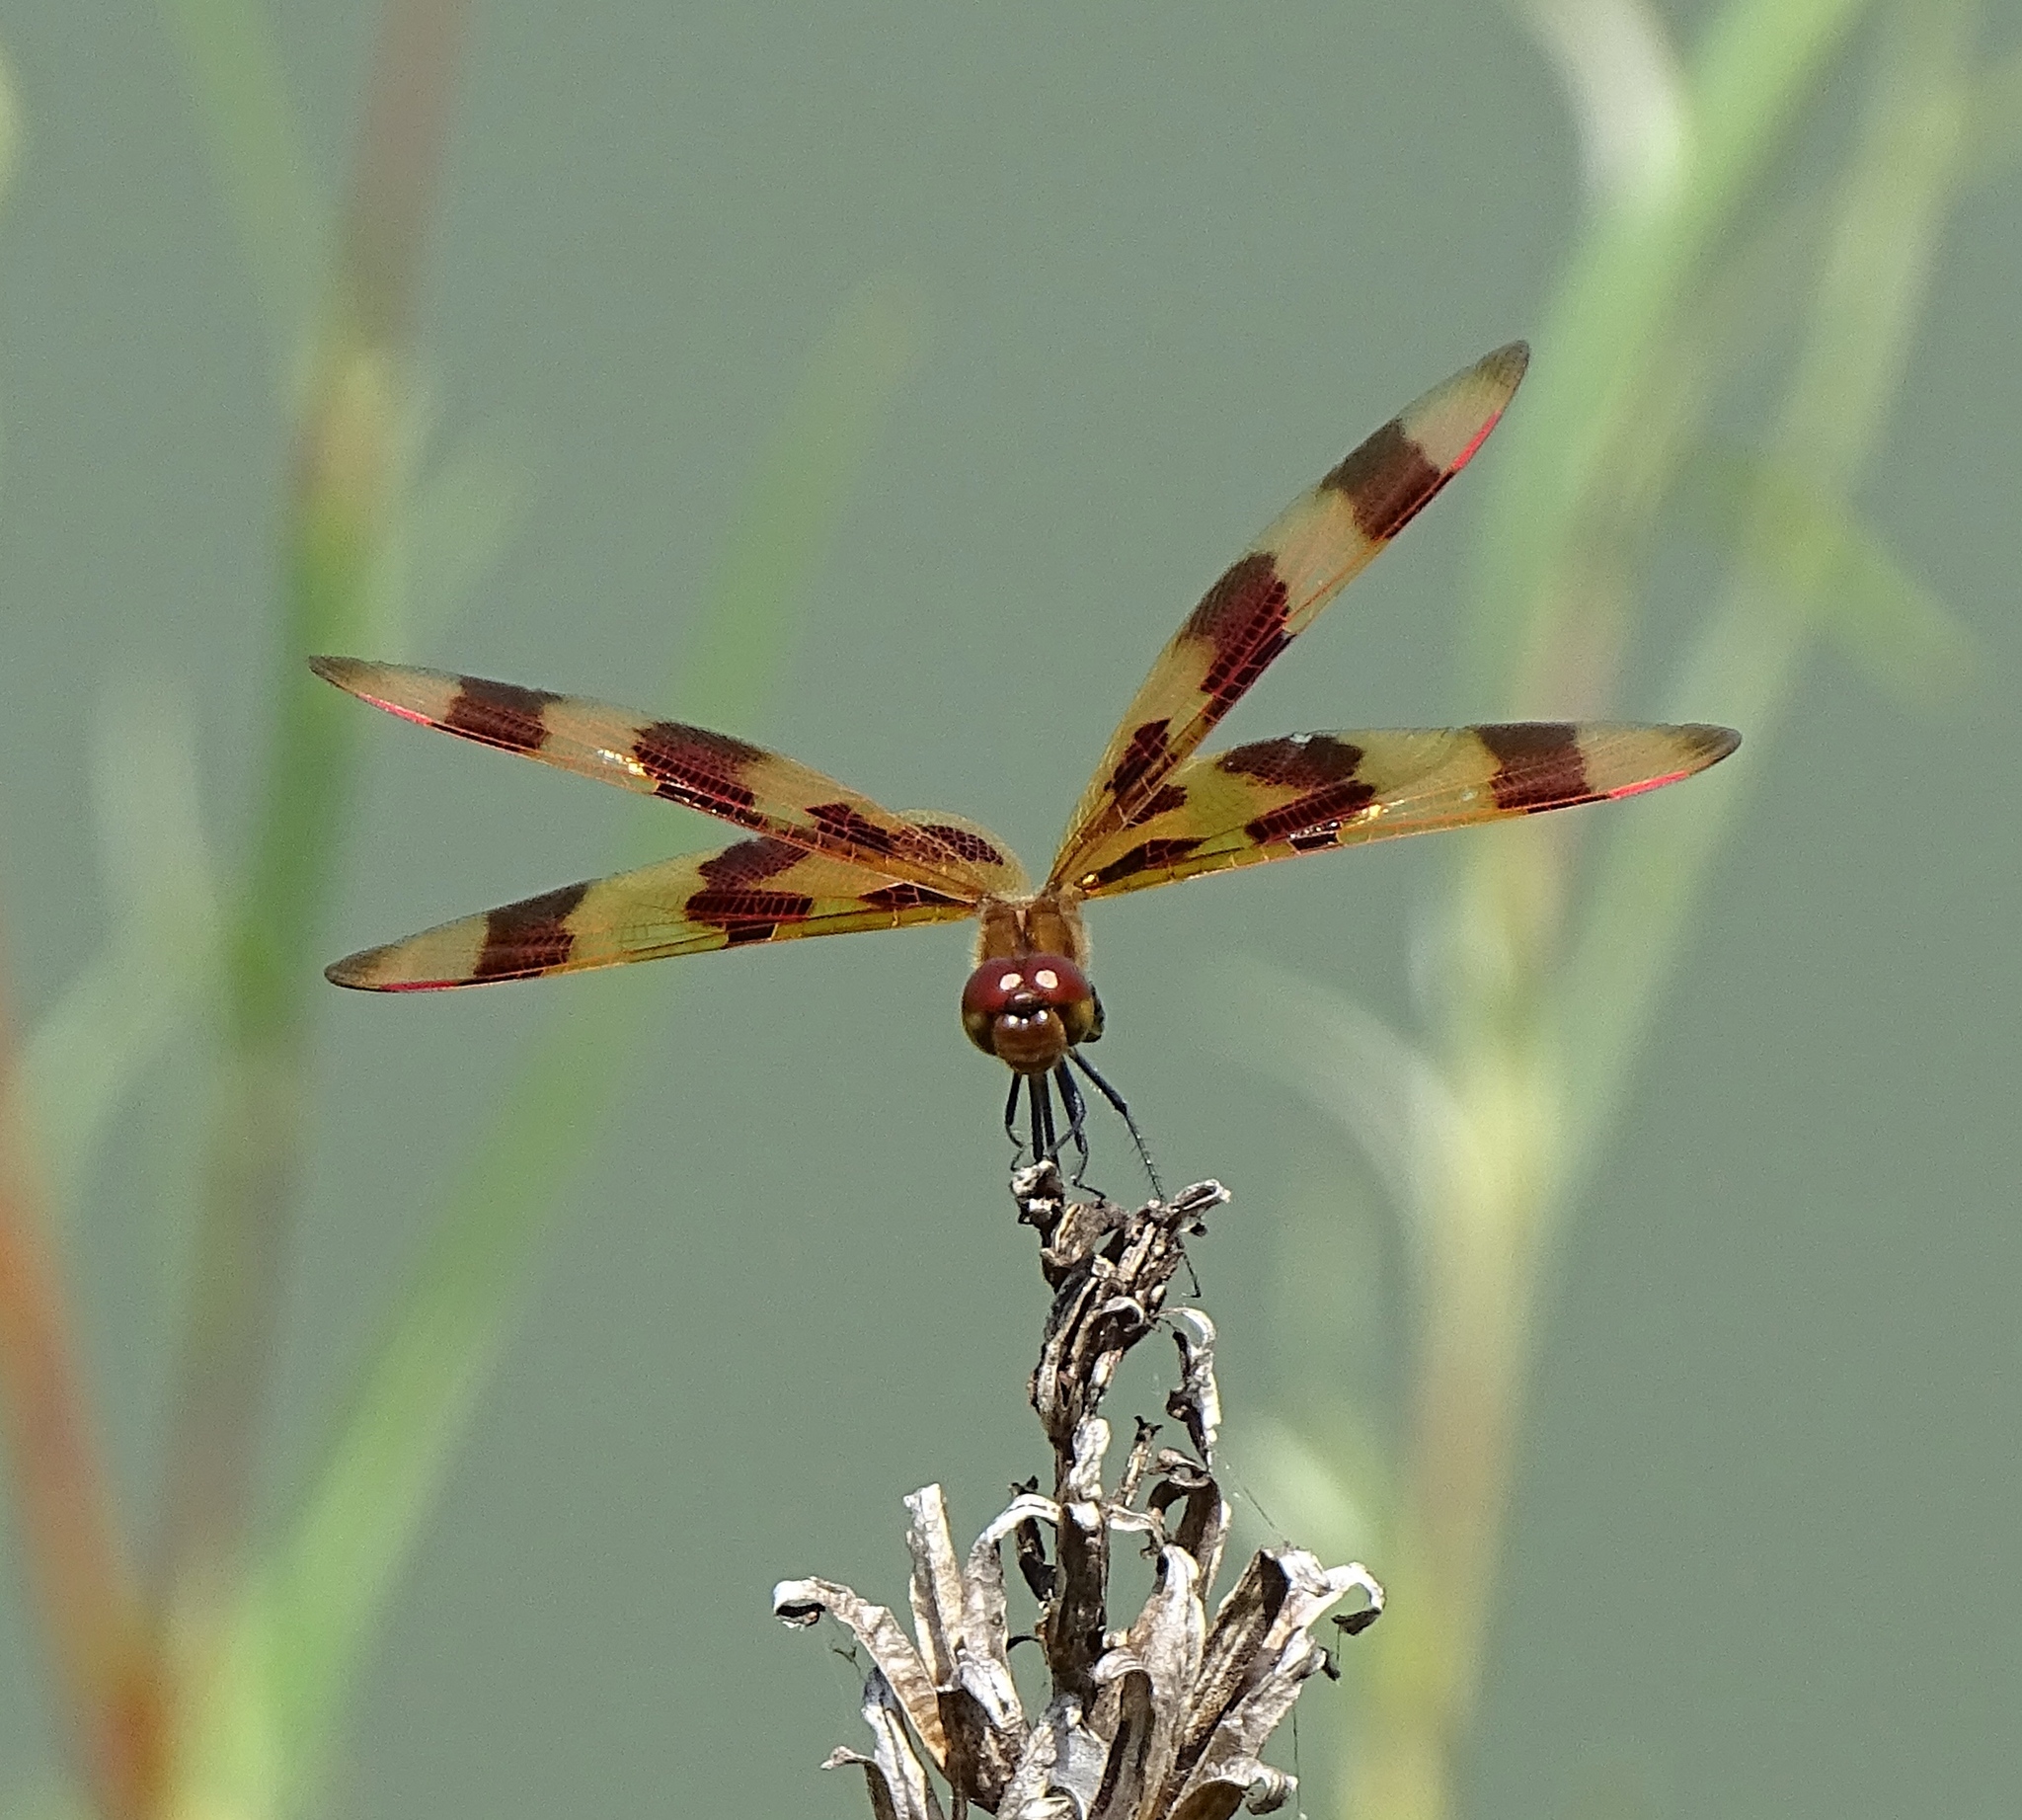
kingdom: Animalia
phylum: Arthropoda
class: Insecta
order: Odonata
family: Libellulidae
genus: Celithemis
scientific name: Celithemis eponina
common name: Halloween pennant
